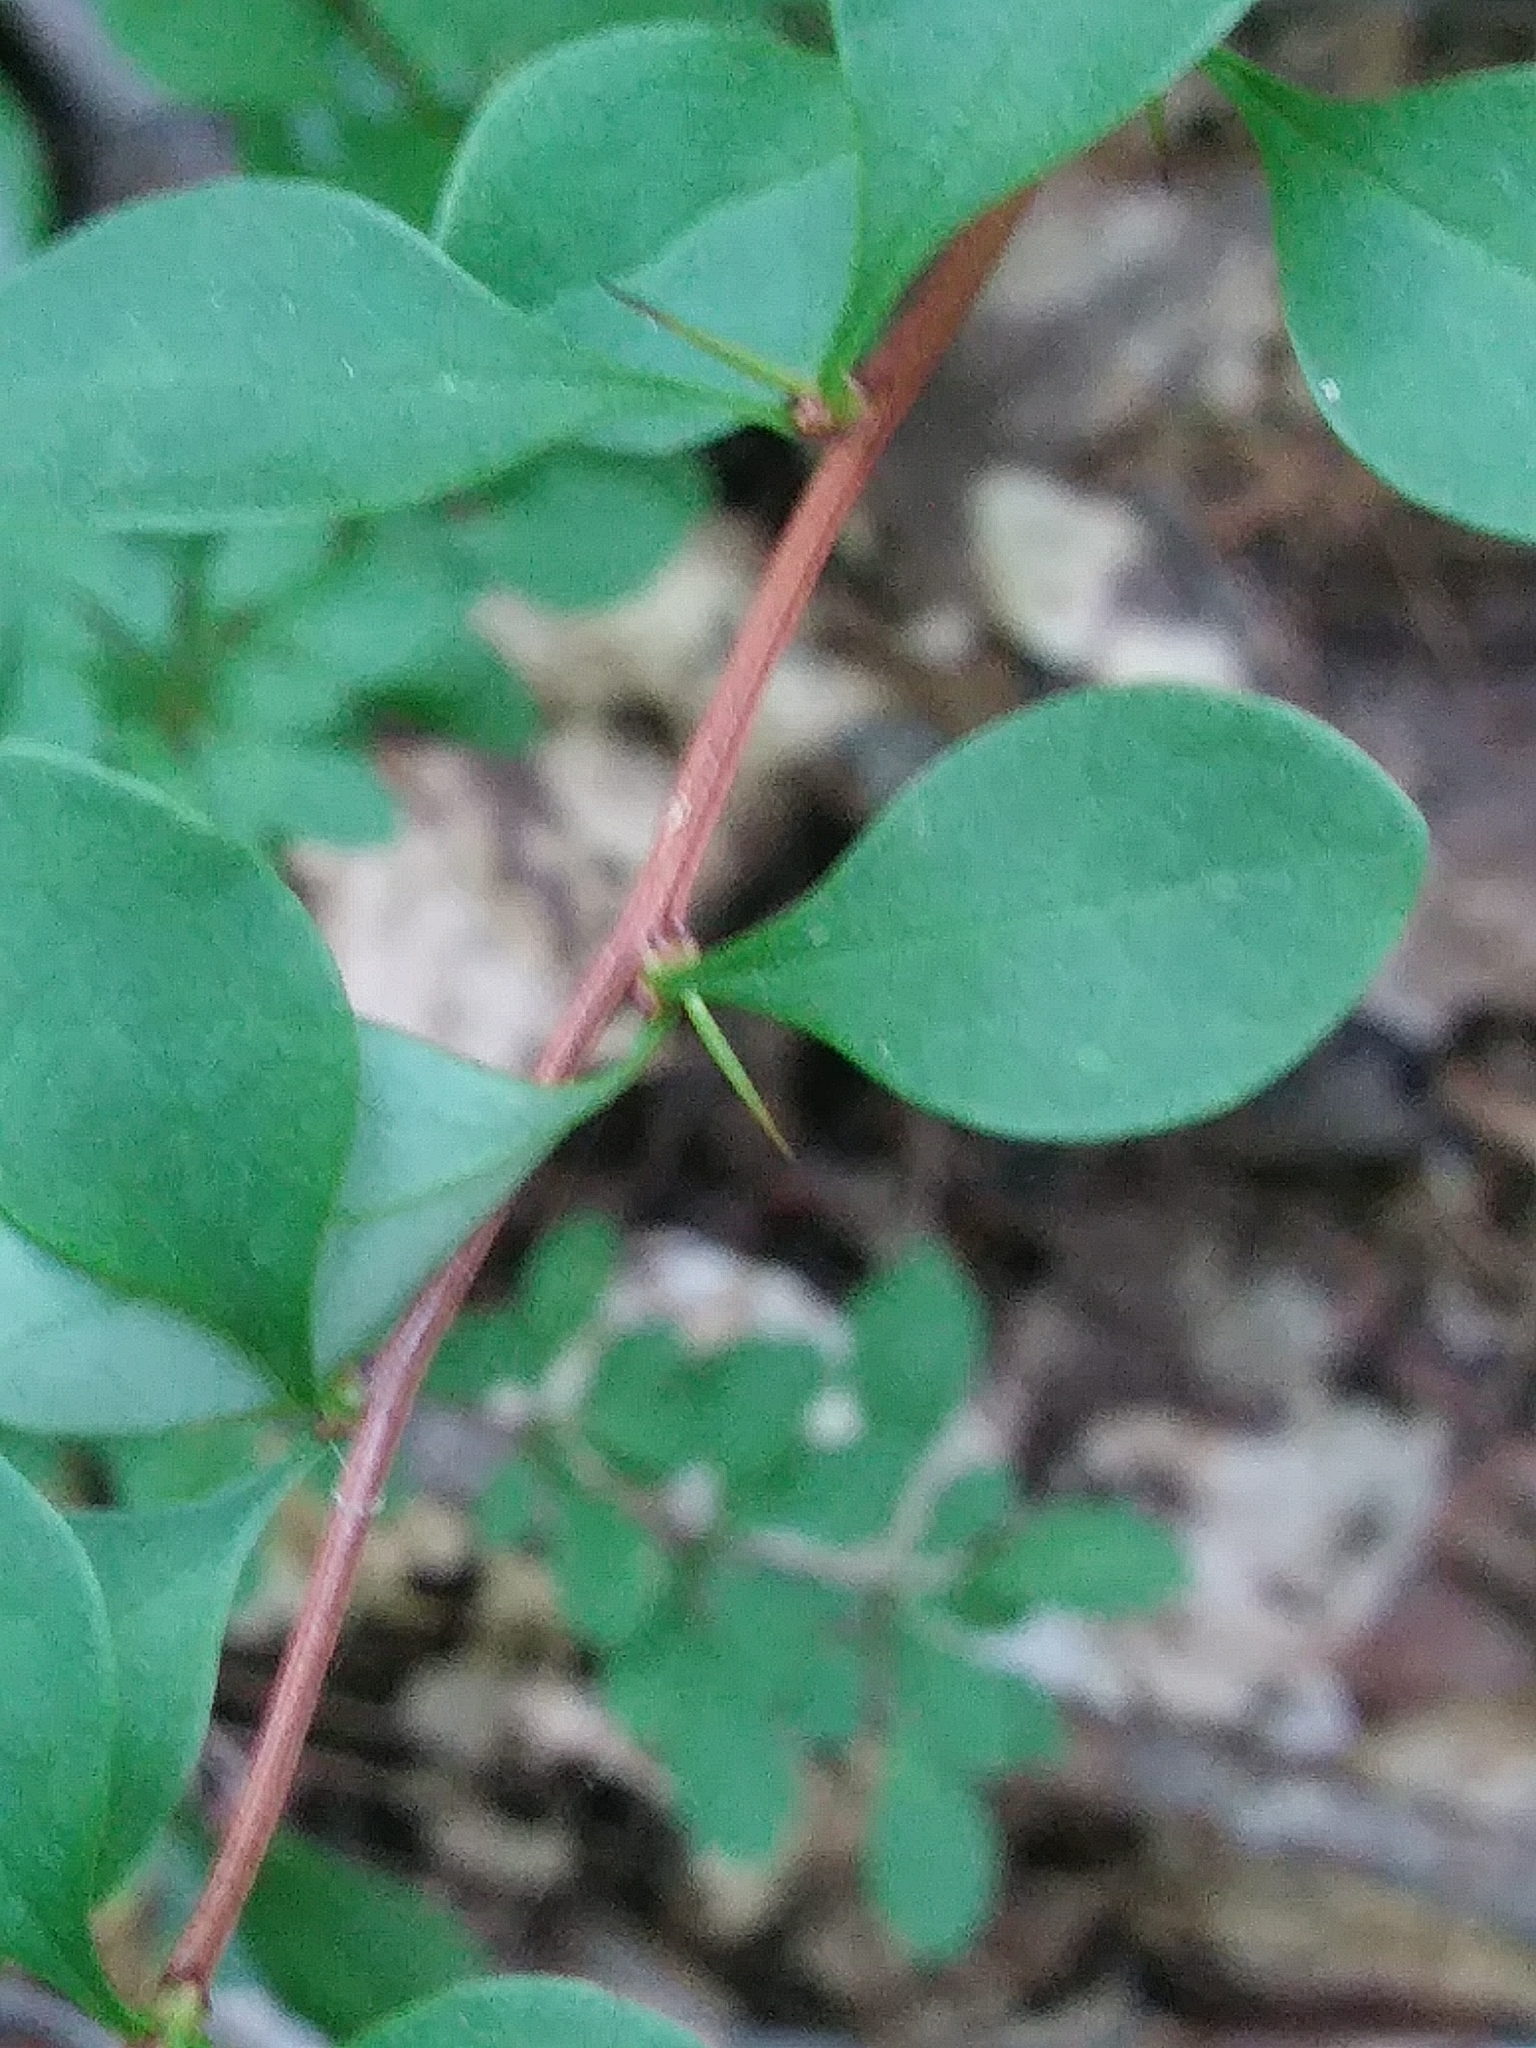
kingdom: Plantae
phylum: Tracheophyta
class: Magnoliopsida
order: Ranunculales
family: Berberidaceae
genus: Berberis
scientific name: Berberis thunbergii
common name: Japanese barberry
